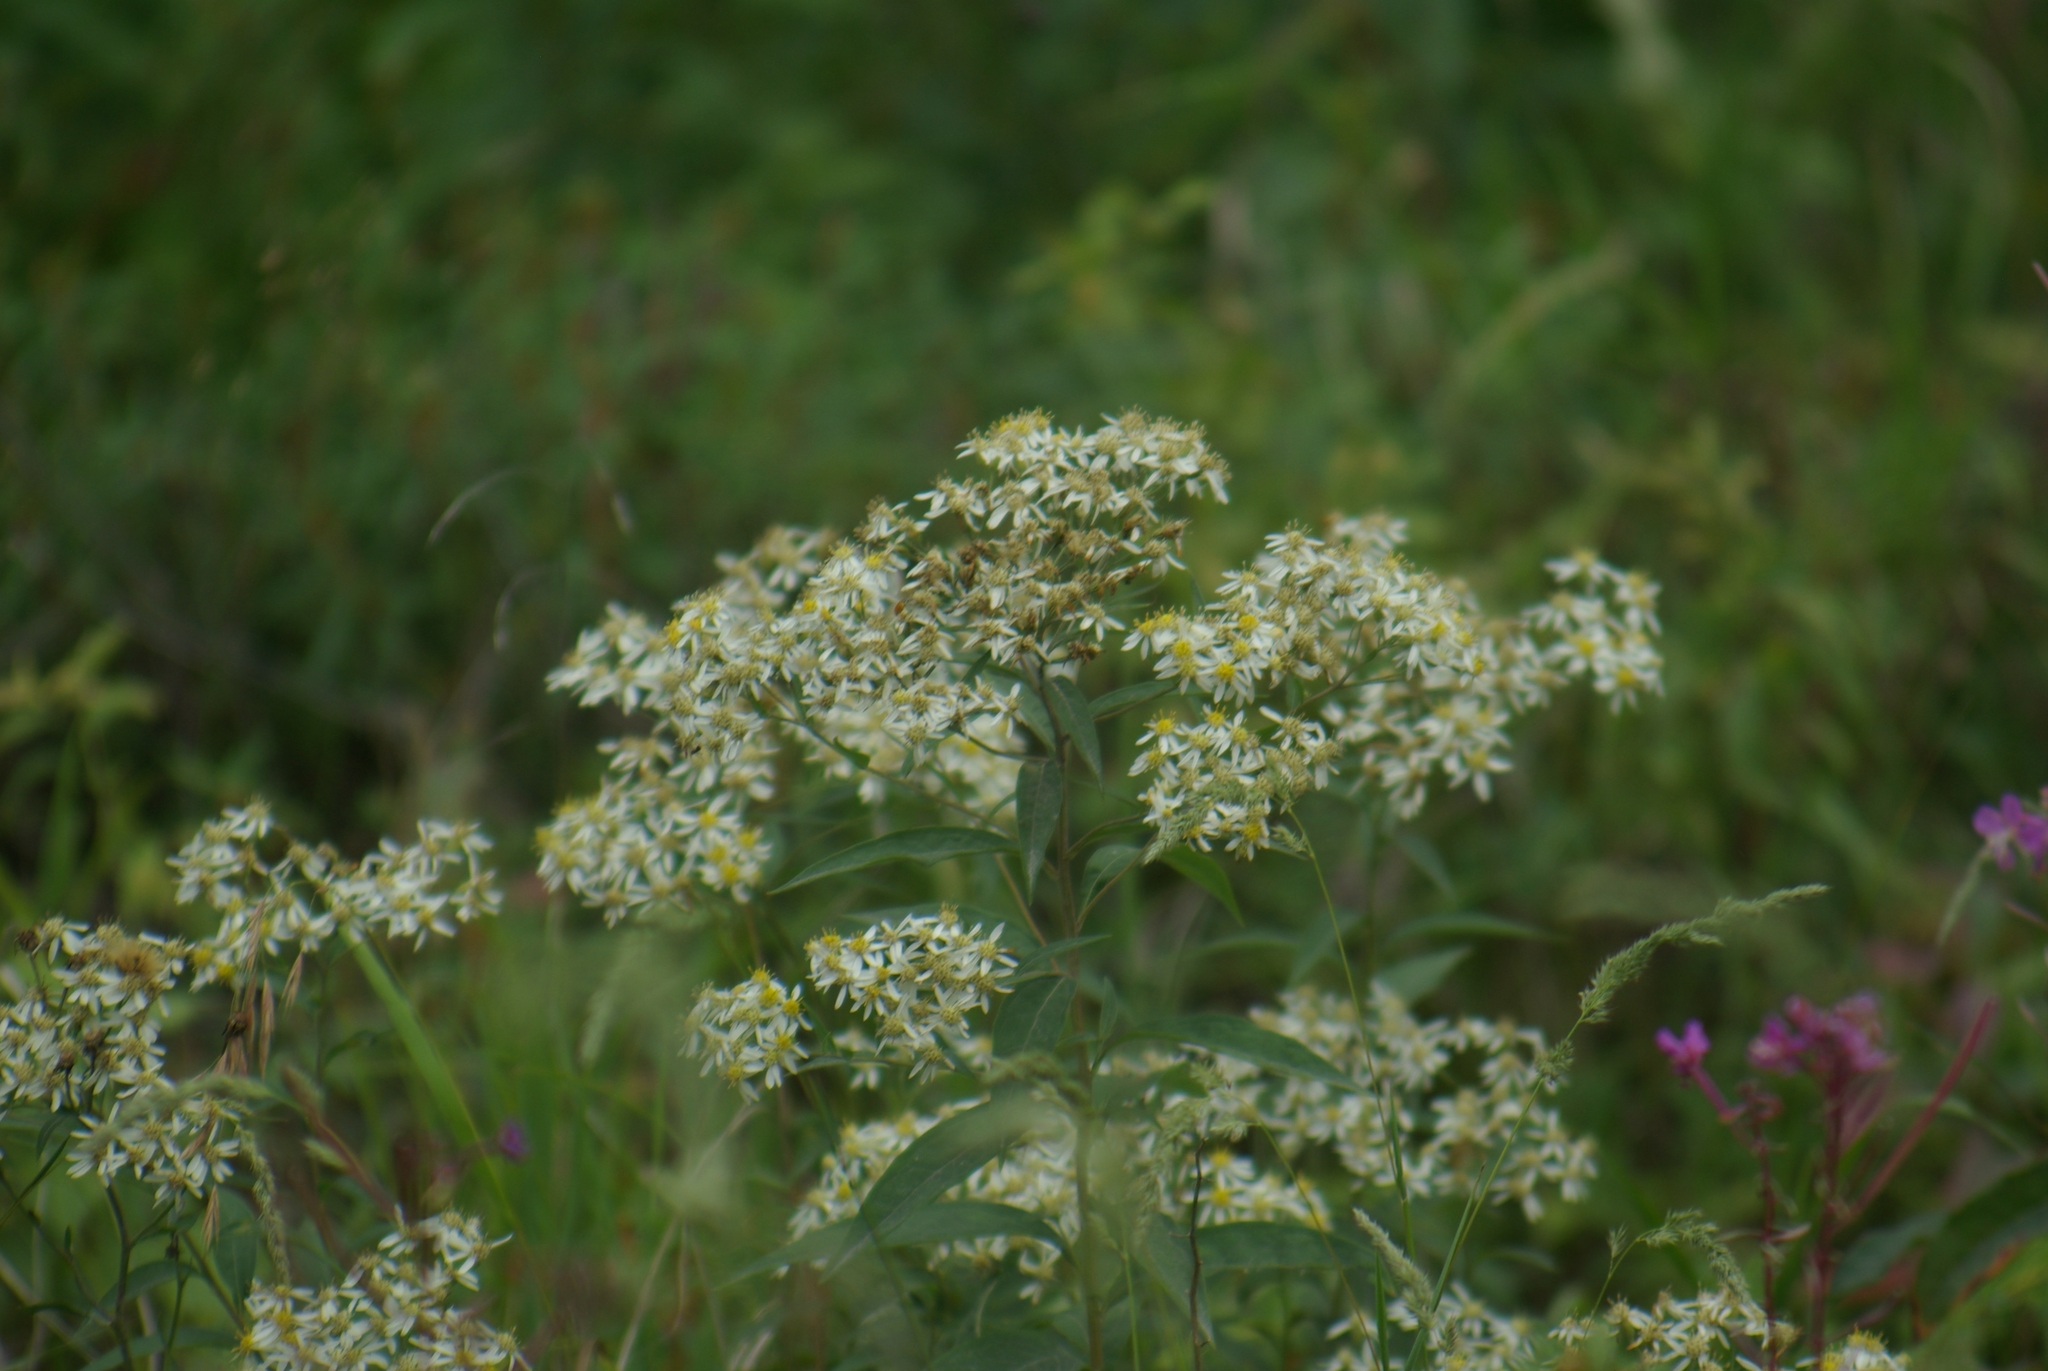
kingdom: Plantae
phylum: Tracheophyta
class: Magnoliopsida
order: Asterales
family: Asteraceae
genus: Doellingeria
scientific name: Doellingeria umbellata
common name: Flat-top white aster
